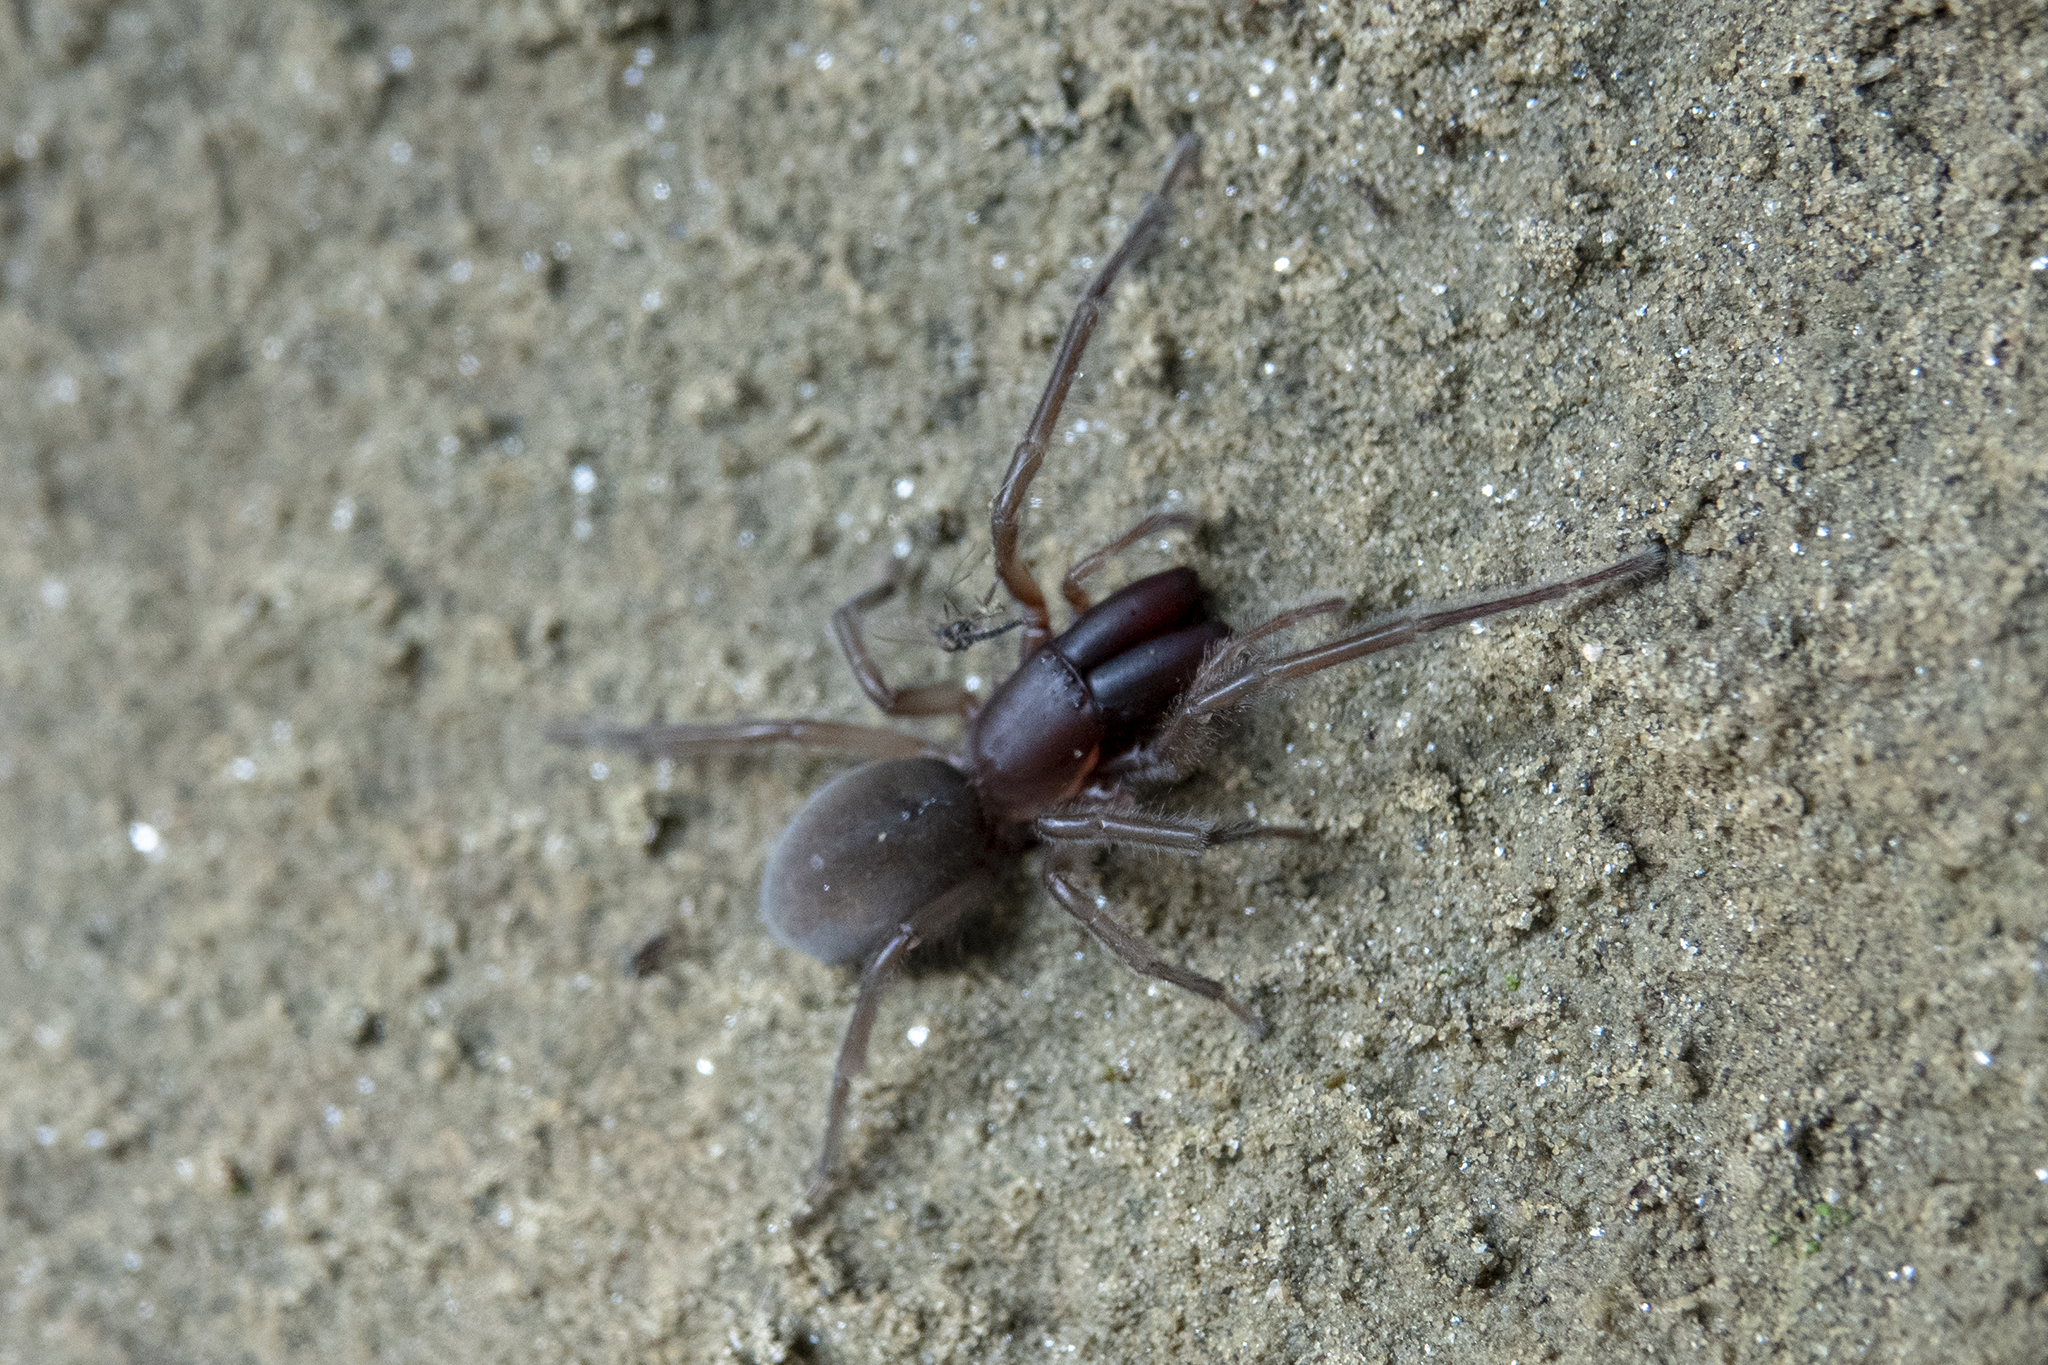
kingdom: Animalia
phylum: Arthropoda
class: Arachnida
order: Araneae
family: Desidae
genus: Desis
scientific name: Desis marina
